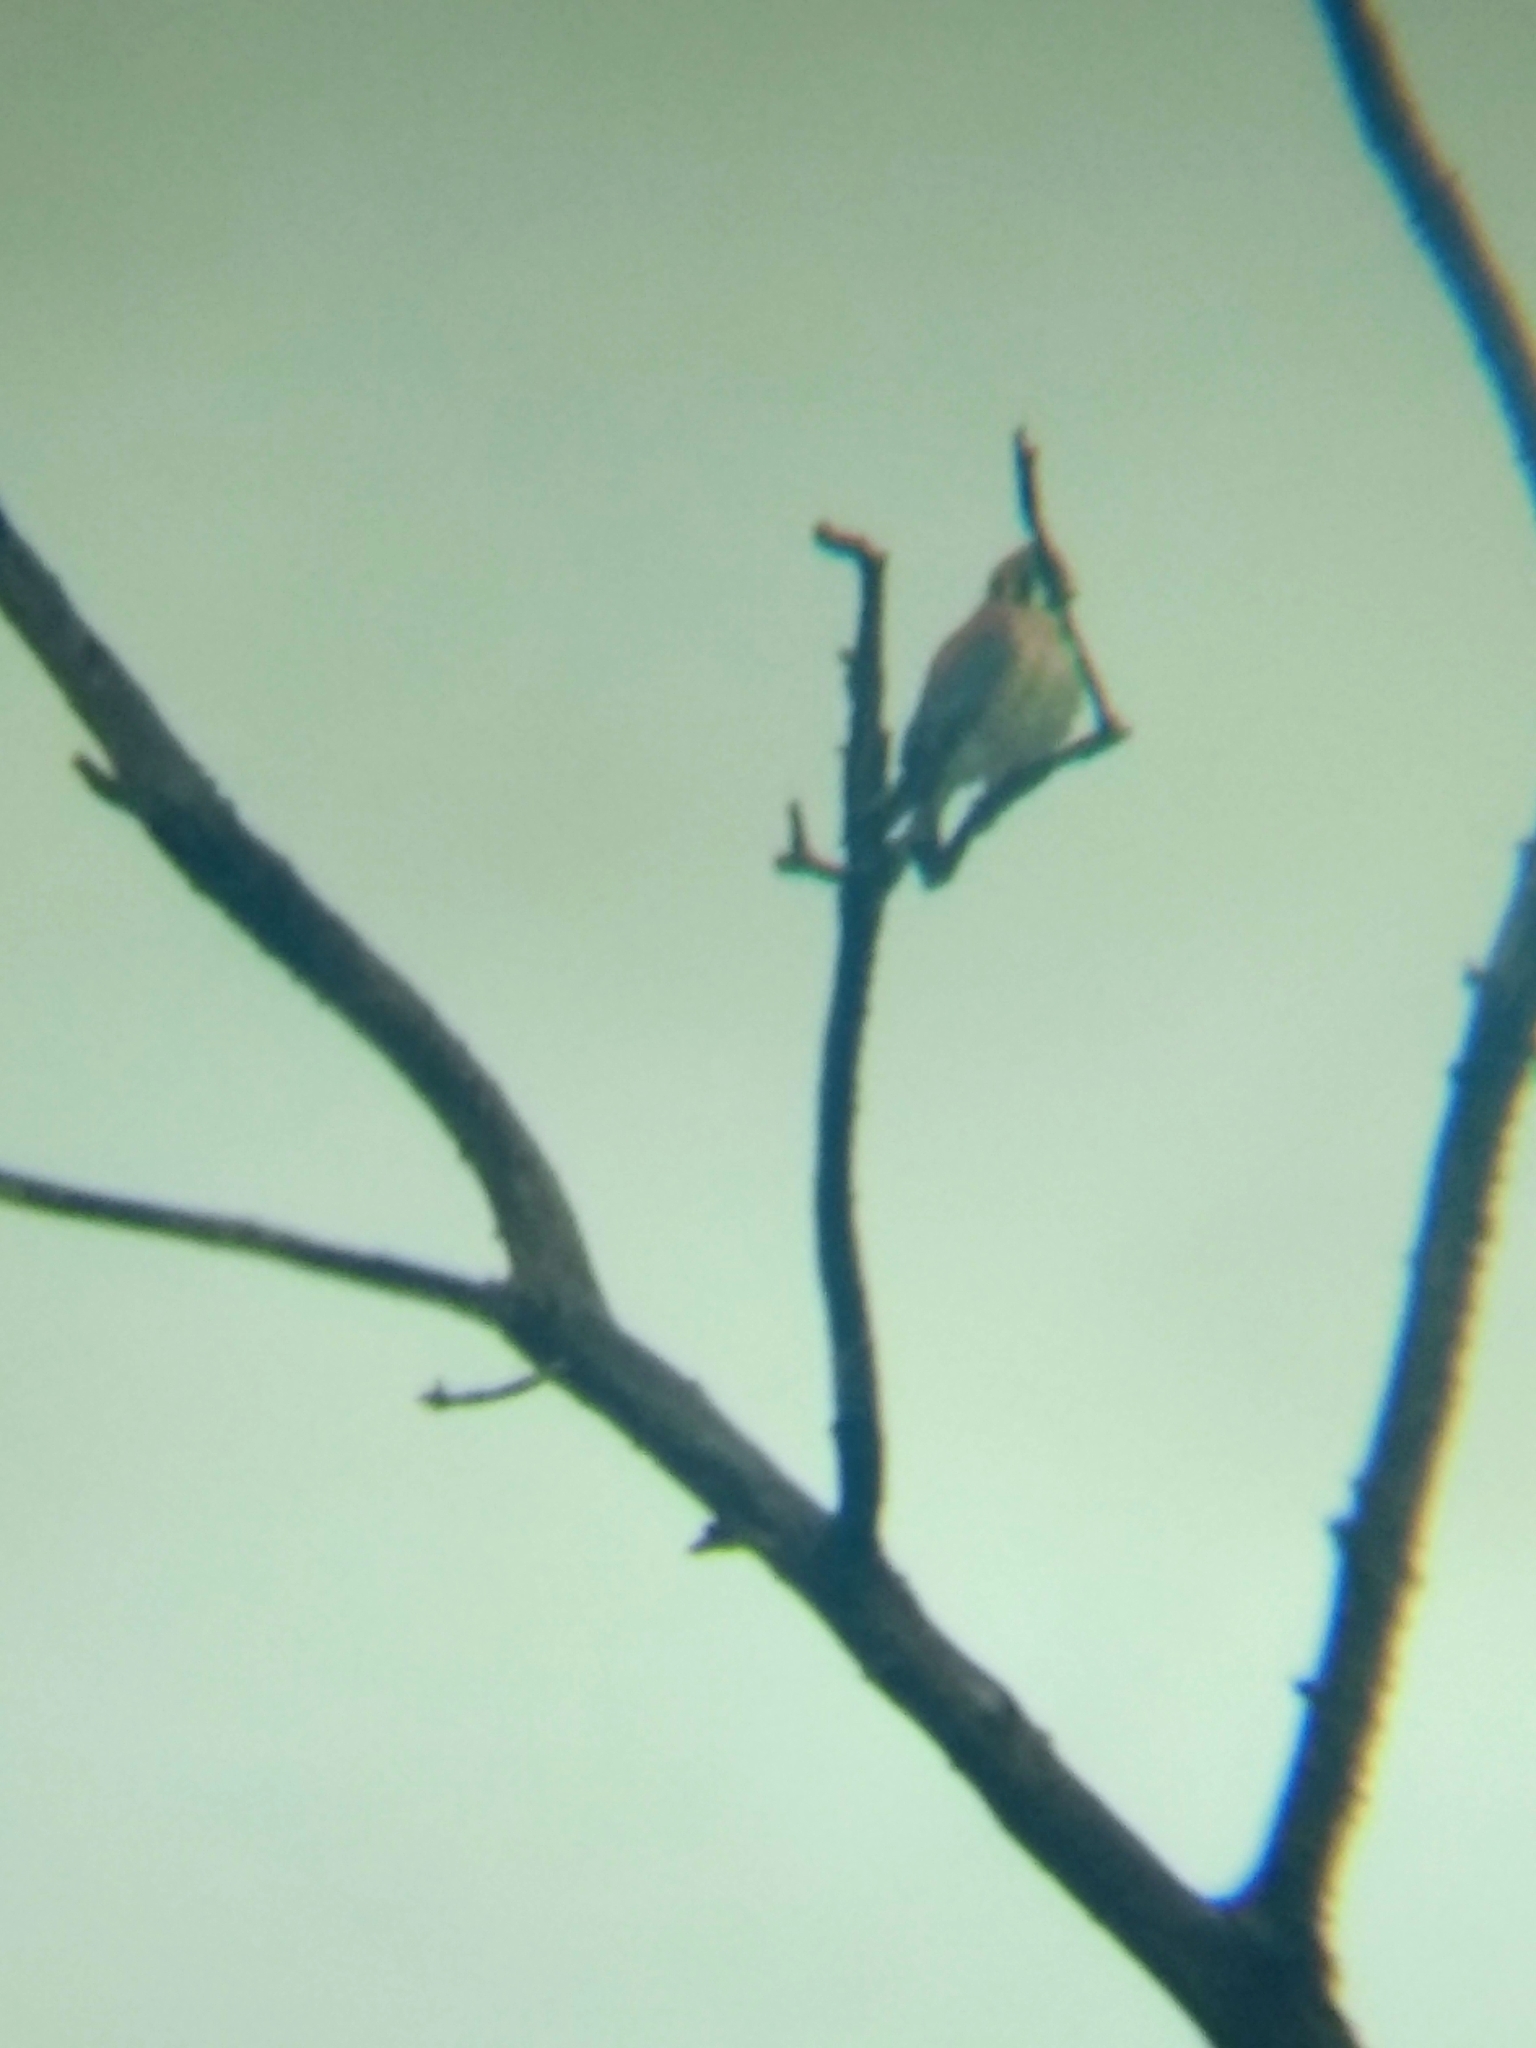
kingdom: Animalia
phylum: Chordata
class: Aves
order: Falconiformes
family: Falconidae
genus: Falco
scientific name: Falco sparverius
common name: American kestrel
